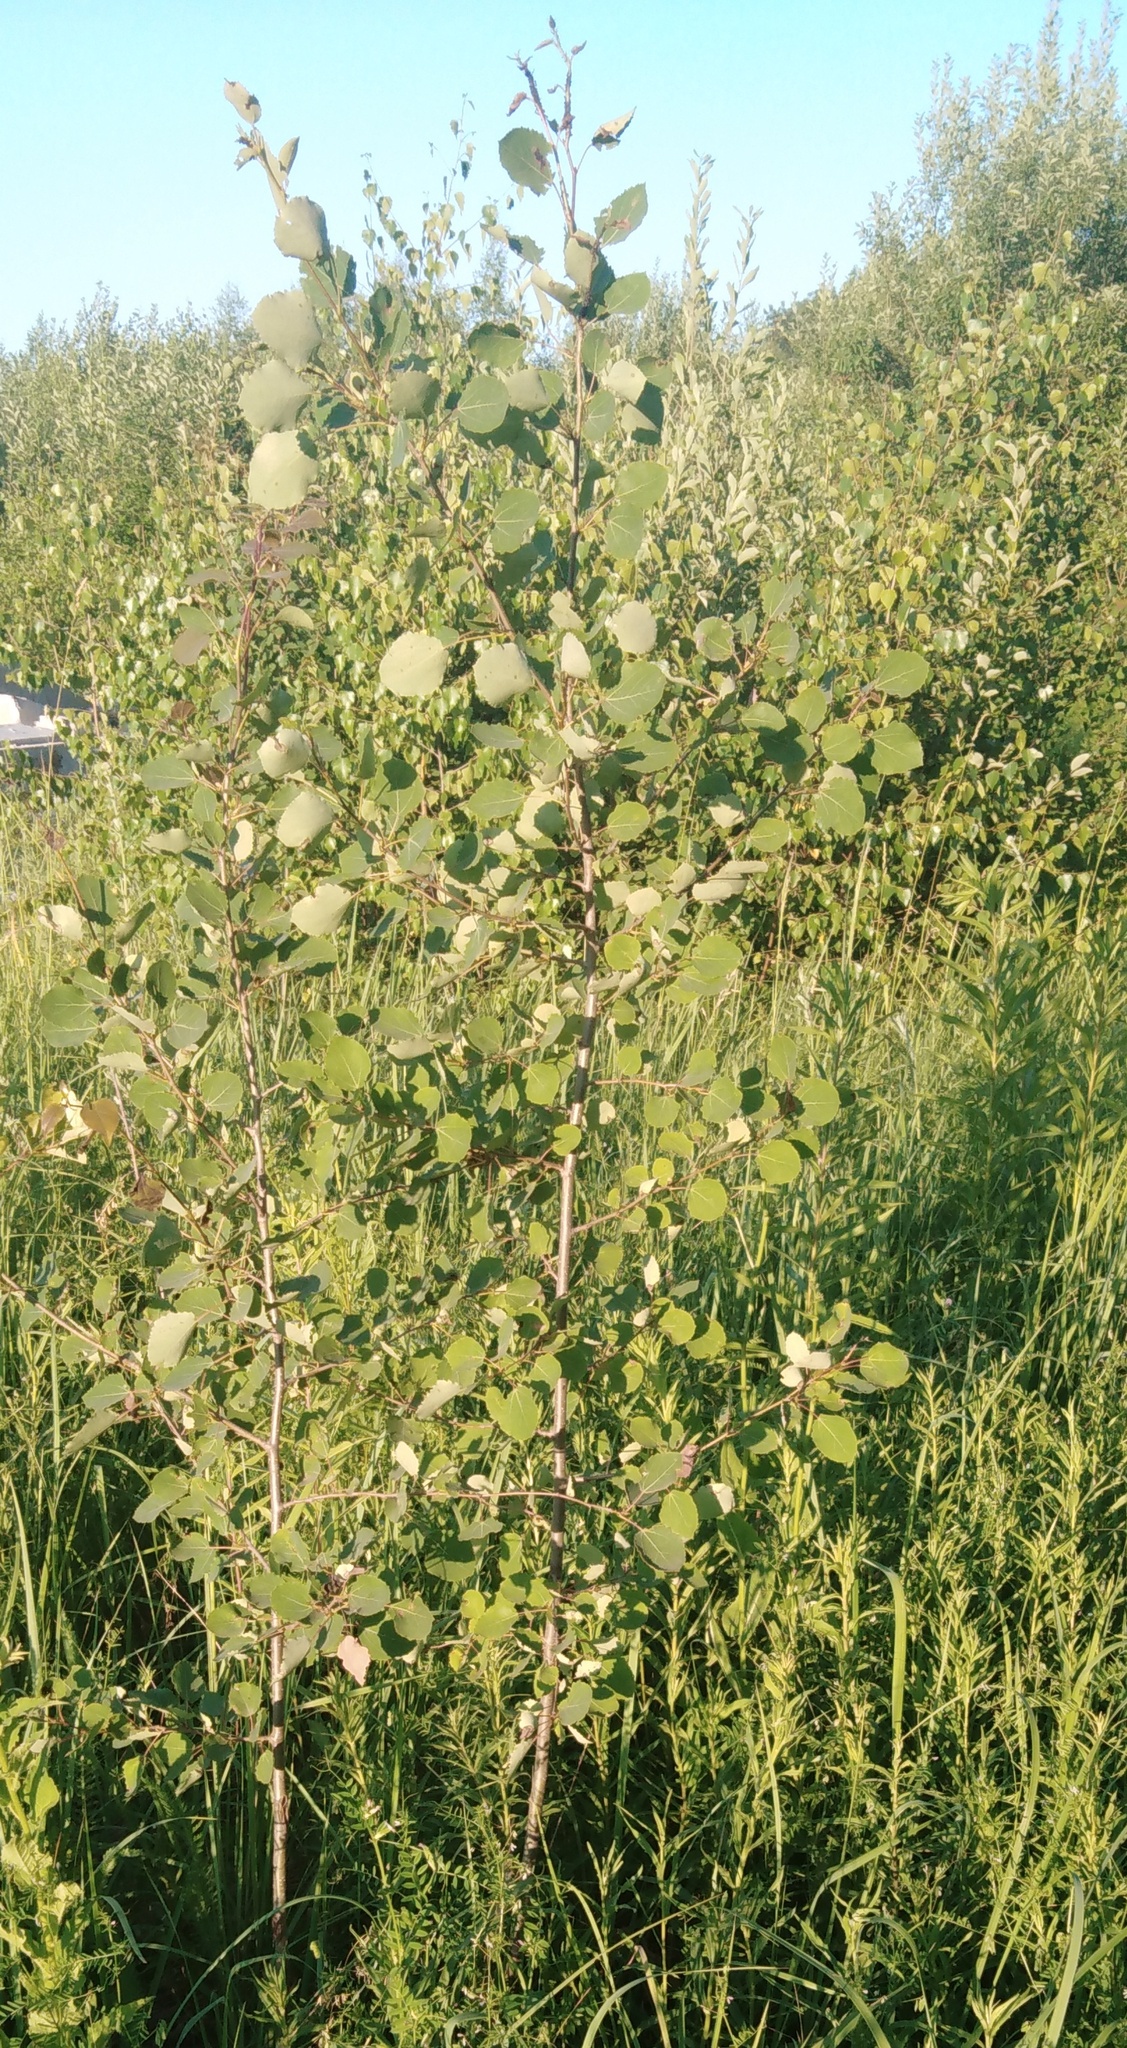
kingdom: Plantae
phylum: Tracheophyta
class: Magnoliopsida
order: Malpighiales
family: Salicaceae
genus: Populus
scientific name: Populus tremula
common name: European aspen
